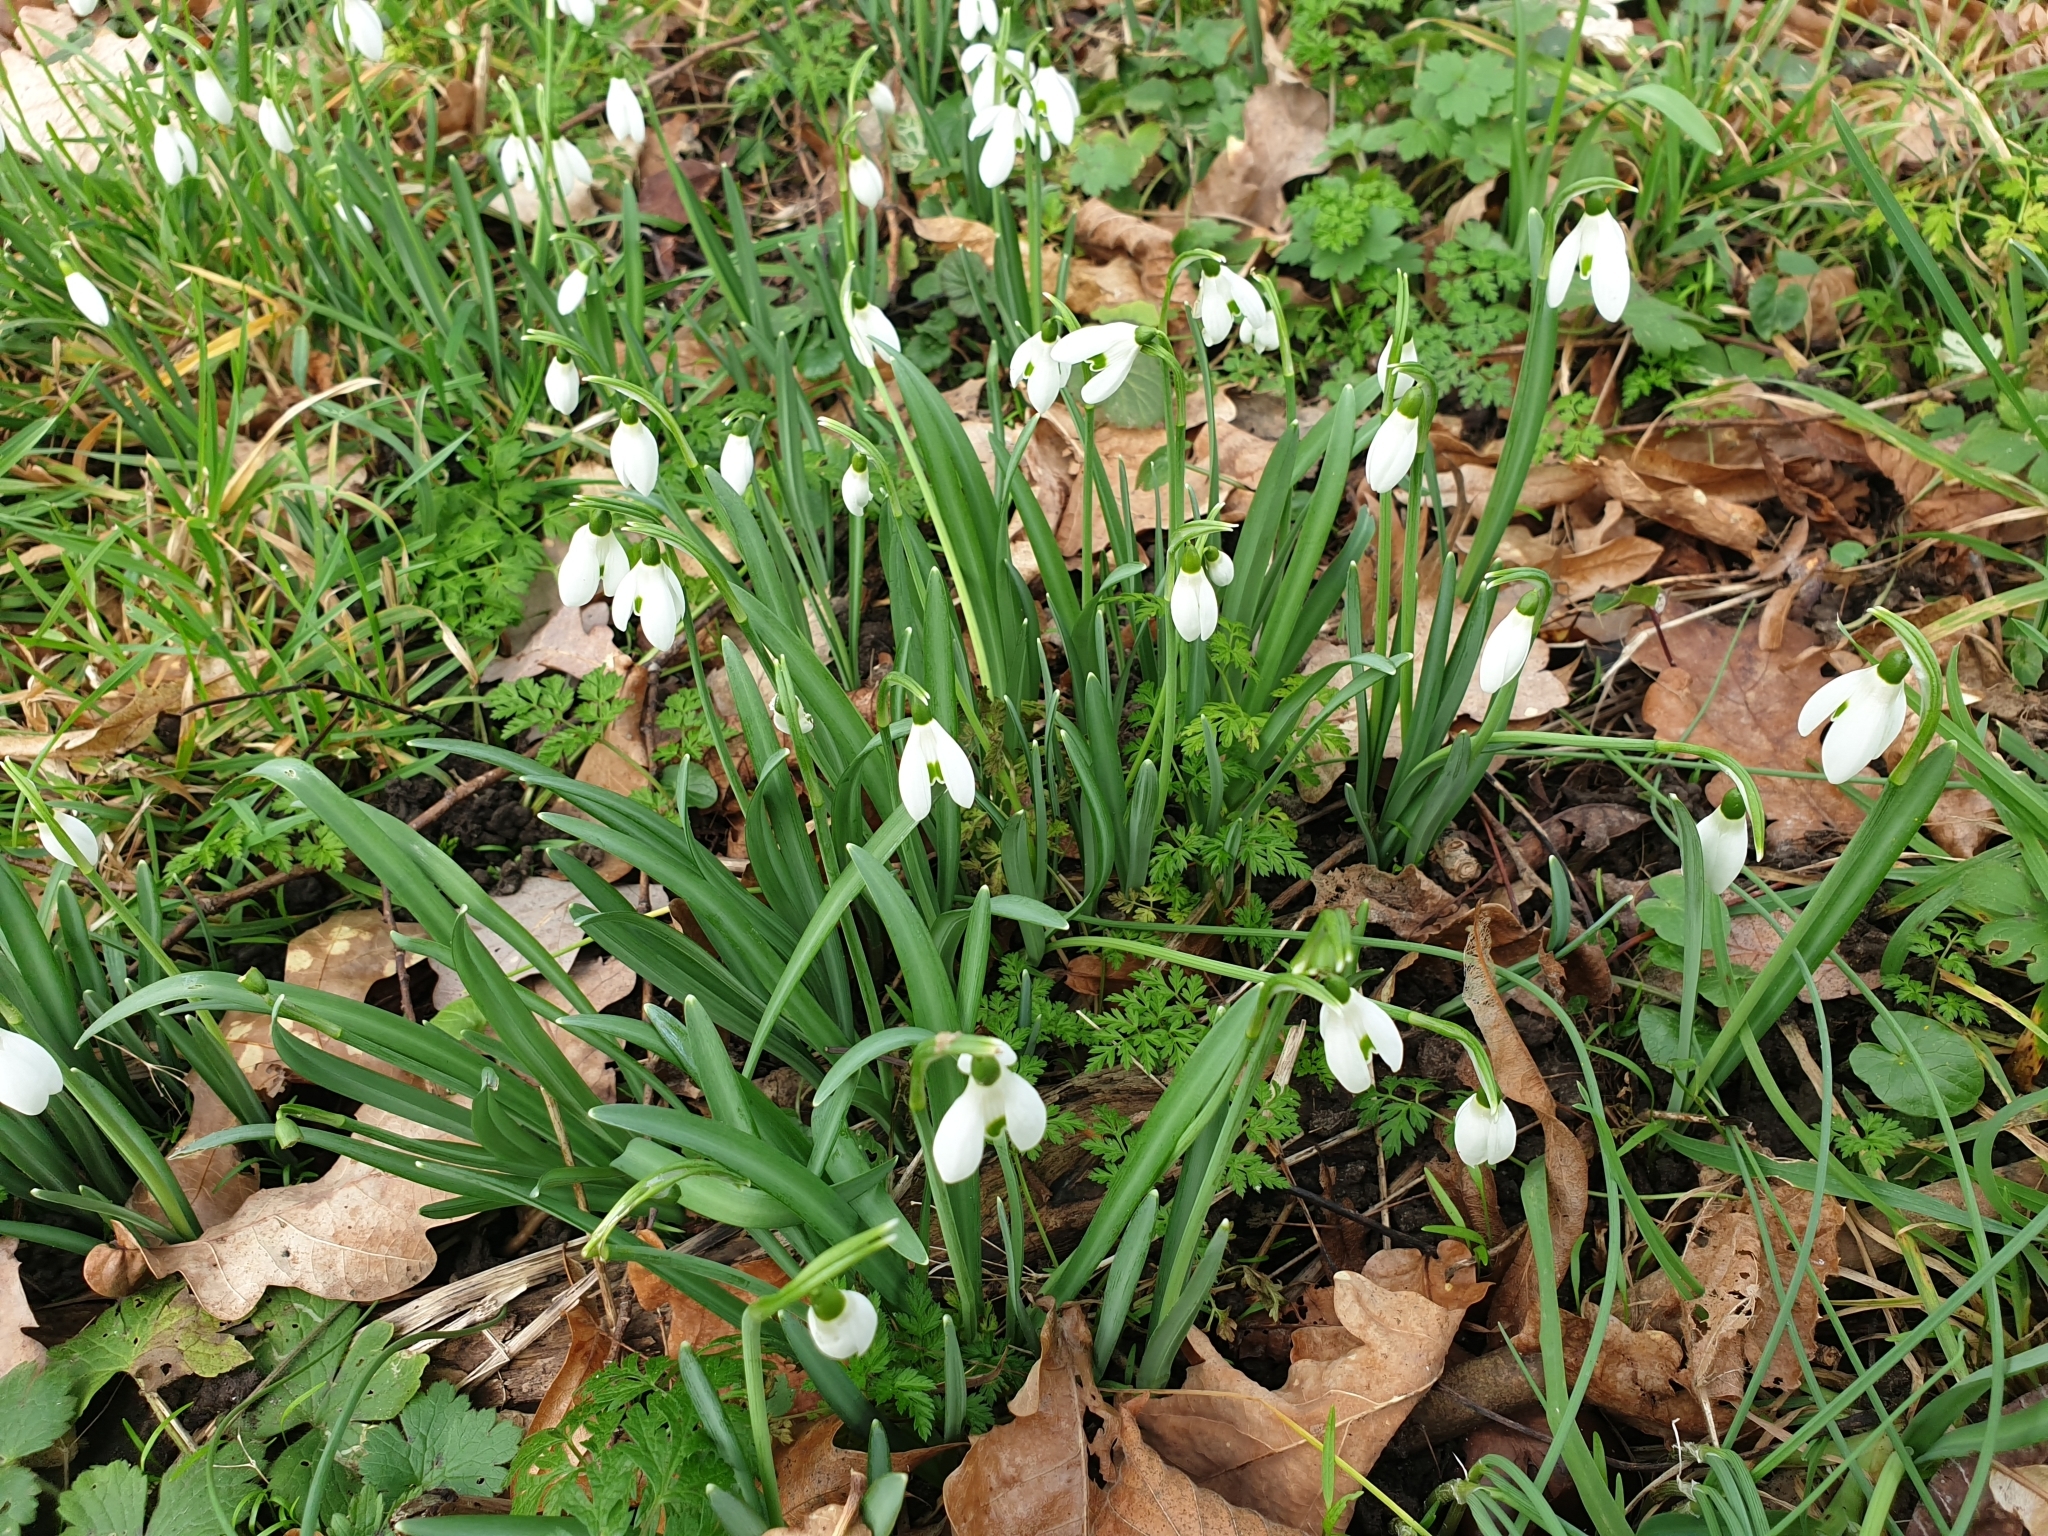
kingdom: Plantae
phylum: Tracheophyta
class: Liliopsida
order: Asparagales
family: Amaryllidaceae
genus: Galanthus
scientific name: Galanthus nivalis
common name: Snowdrop
